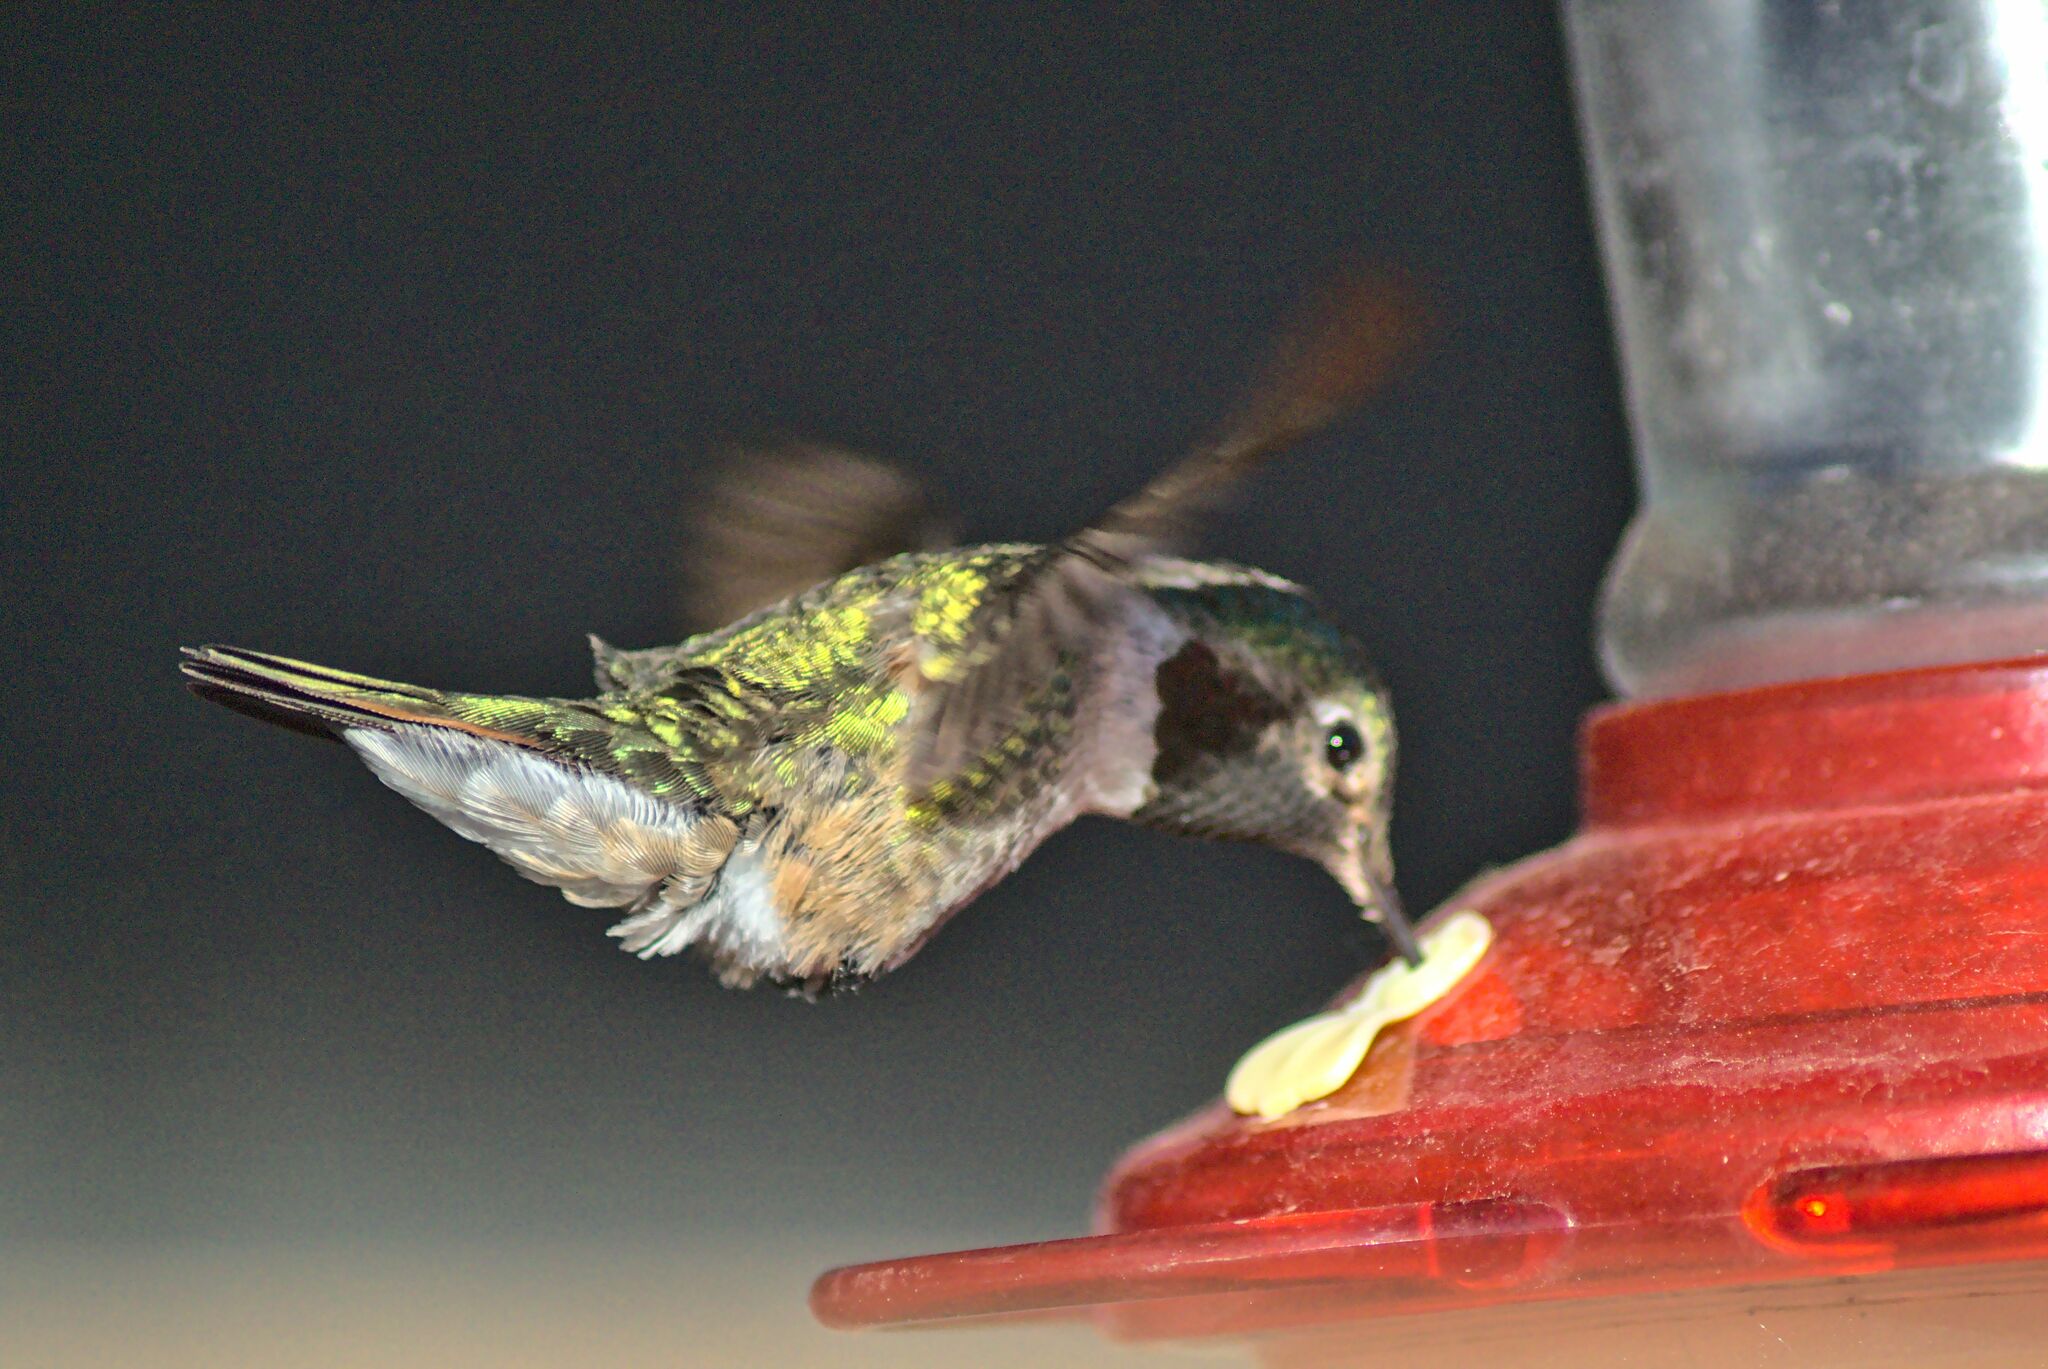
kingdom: Animalia
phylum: Chordata
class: Aves
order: Apodiformes
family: Trochilidae
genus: Selasphorus
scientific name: Selasphorus platycercus
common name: Broad-tailed hummingbird
